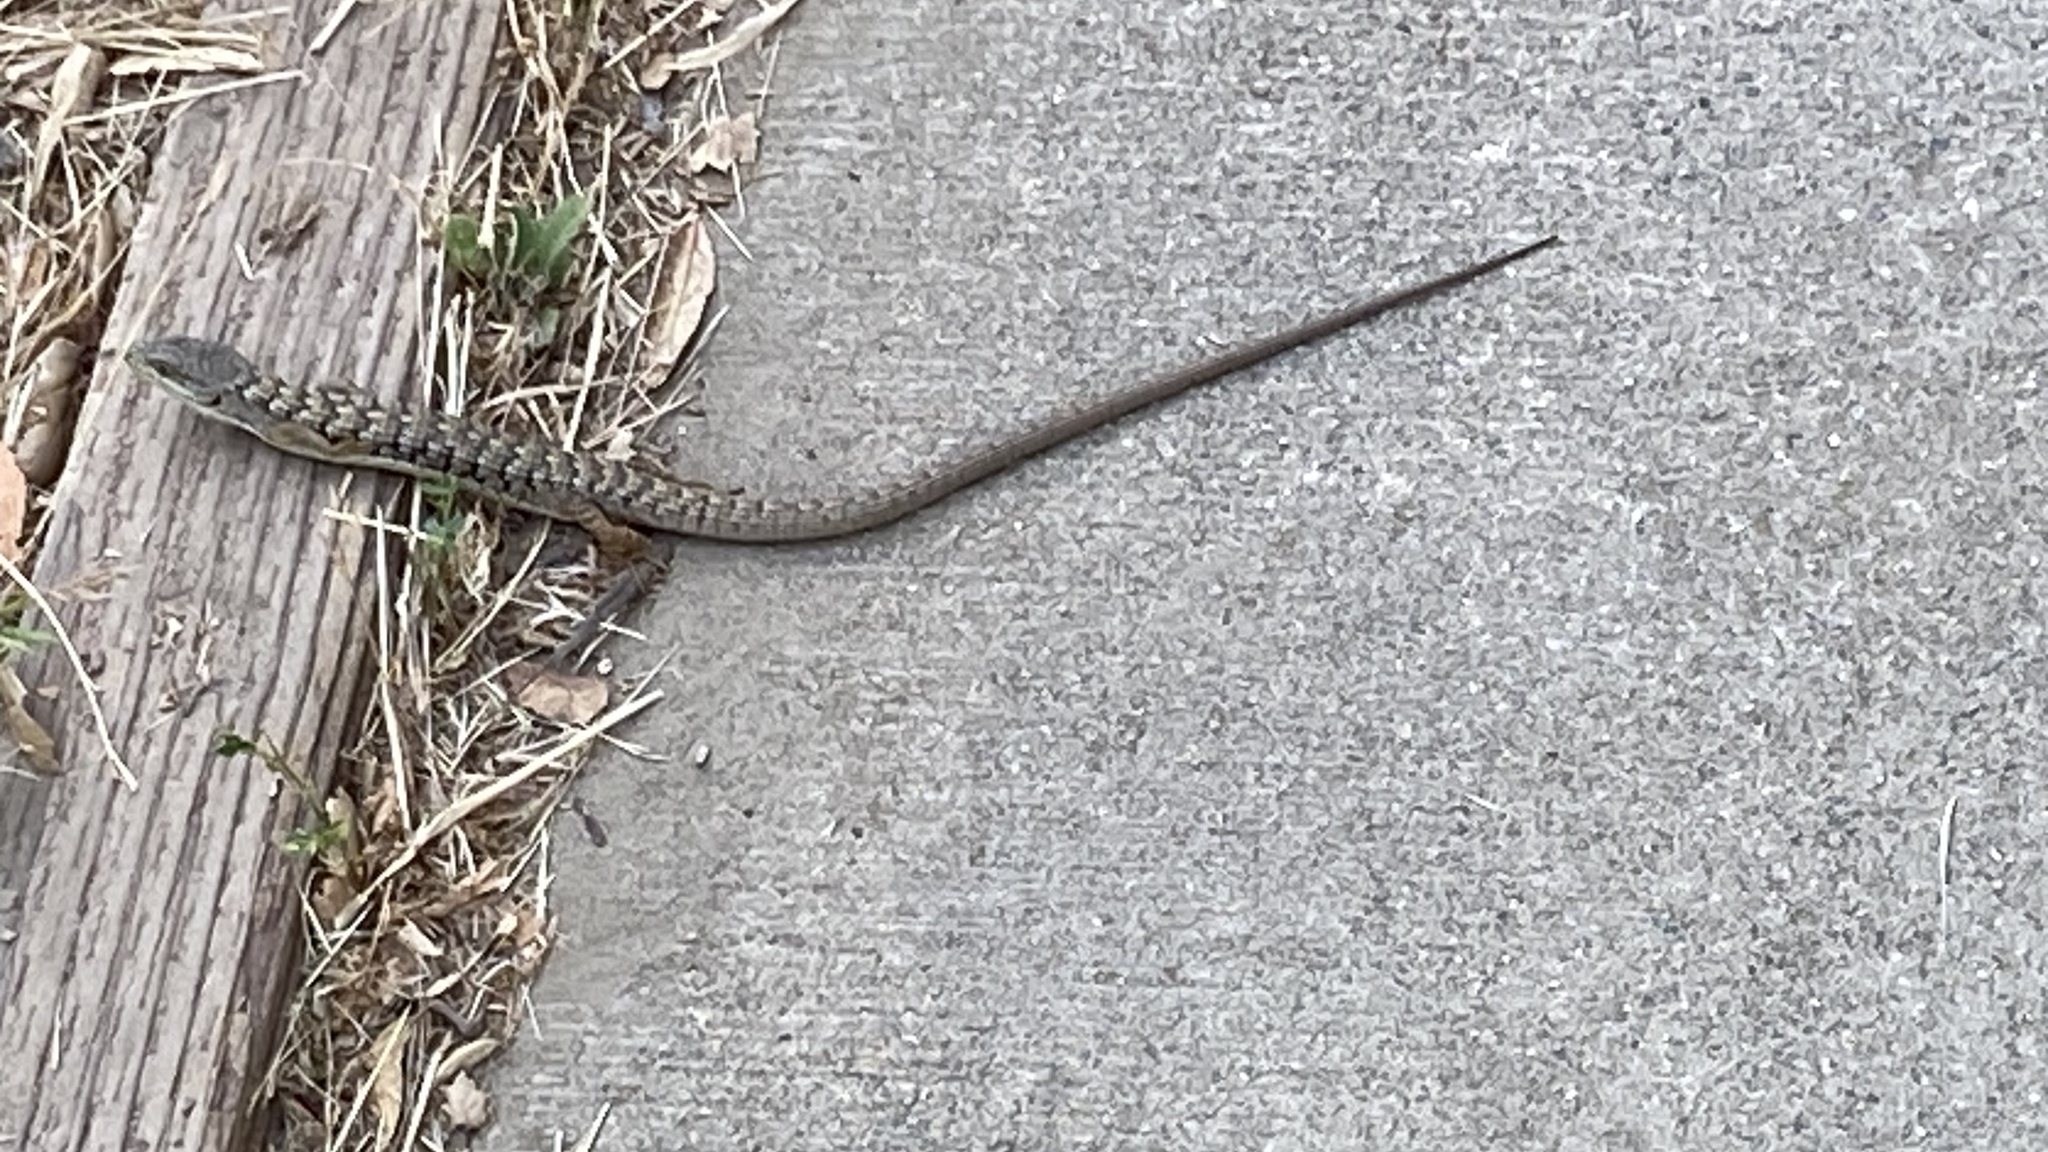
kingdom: Animalia
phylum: Chordata
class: Squamata
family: Anguidae
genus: Elgaria
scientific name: Elgaria multicarinata
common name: Southern alligator lizard
